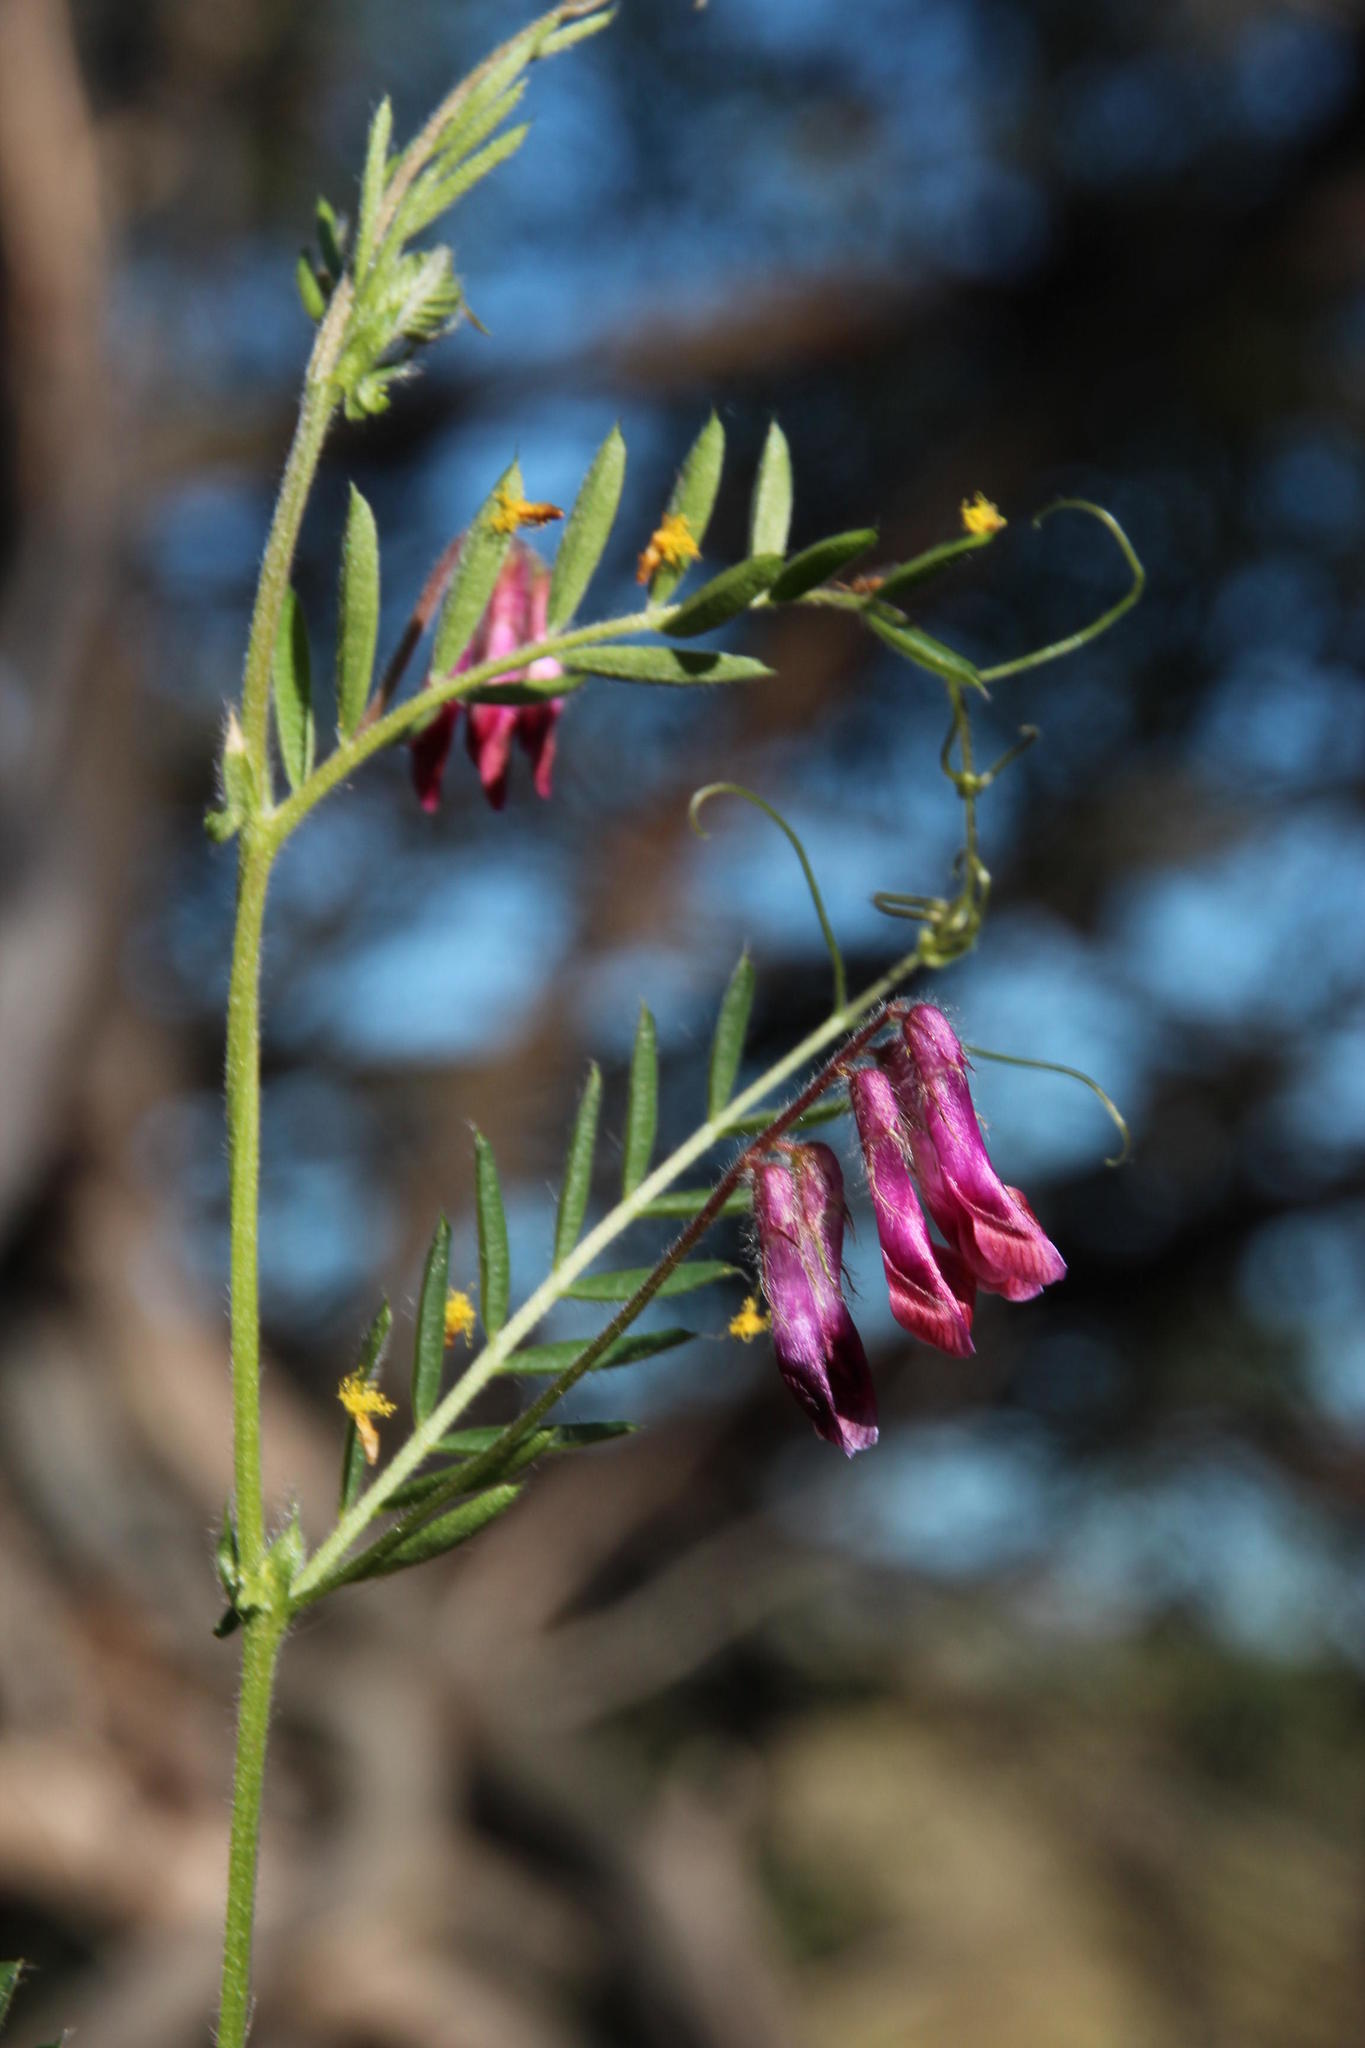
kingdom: Plantae
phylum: Tracheophyta
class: Magnoliopsida
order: Fabales
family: Fabaceae
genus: Vicia
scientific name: Vicia benghalensis
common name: Purple vetch
